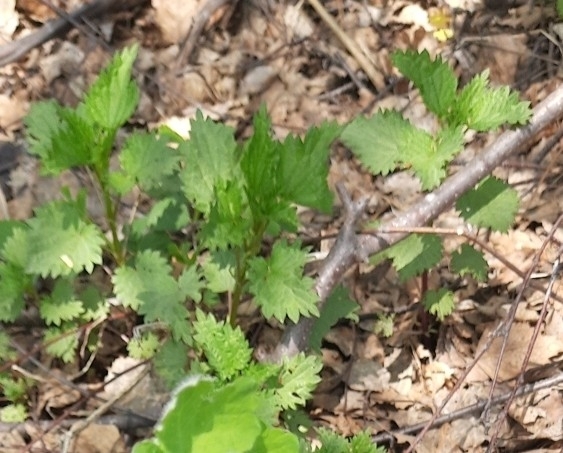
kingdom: Plantae
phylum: Tracheophyta
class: Magnoliopsida
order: Rosales
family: Urticaceae
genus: Urtica
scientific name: Urtica dioica
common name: Common nettle
